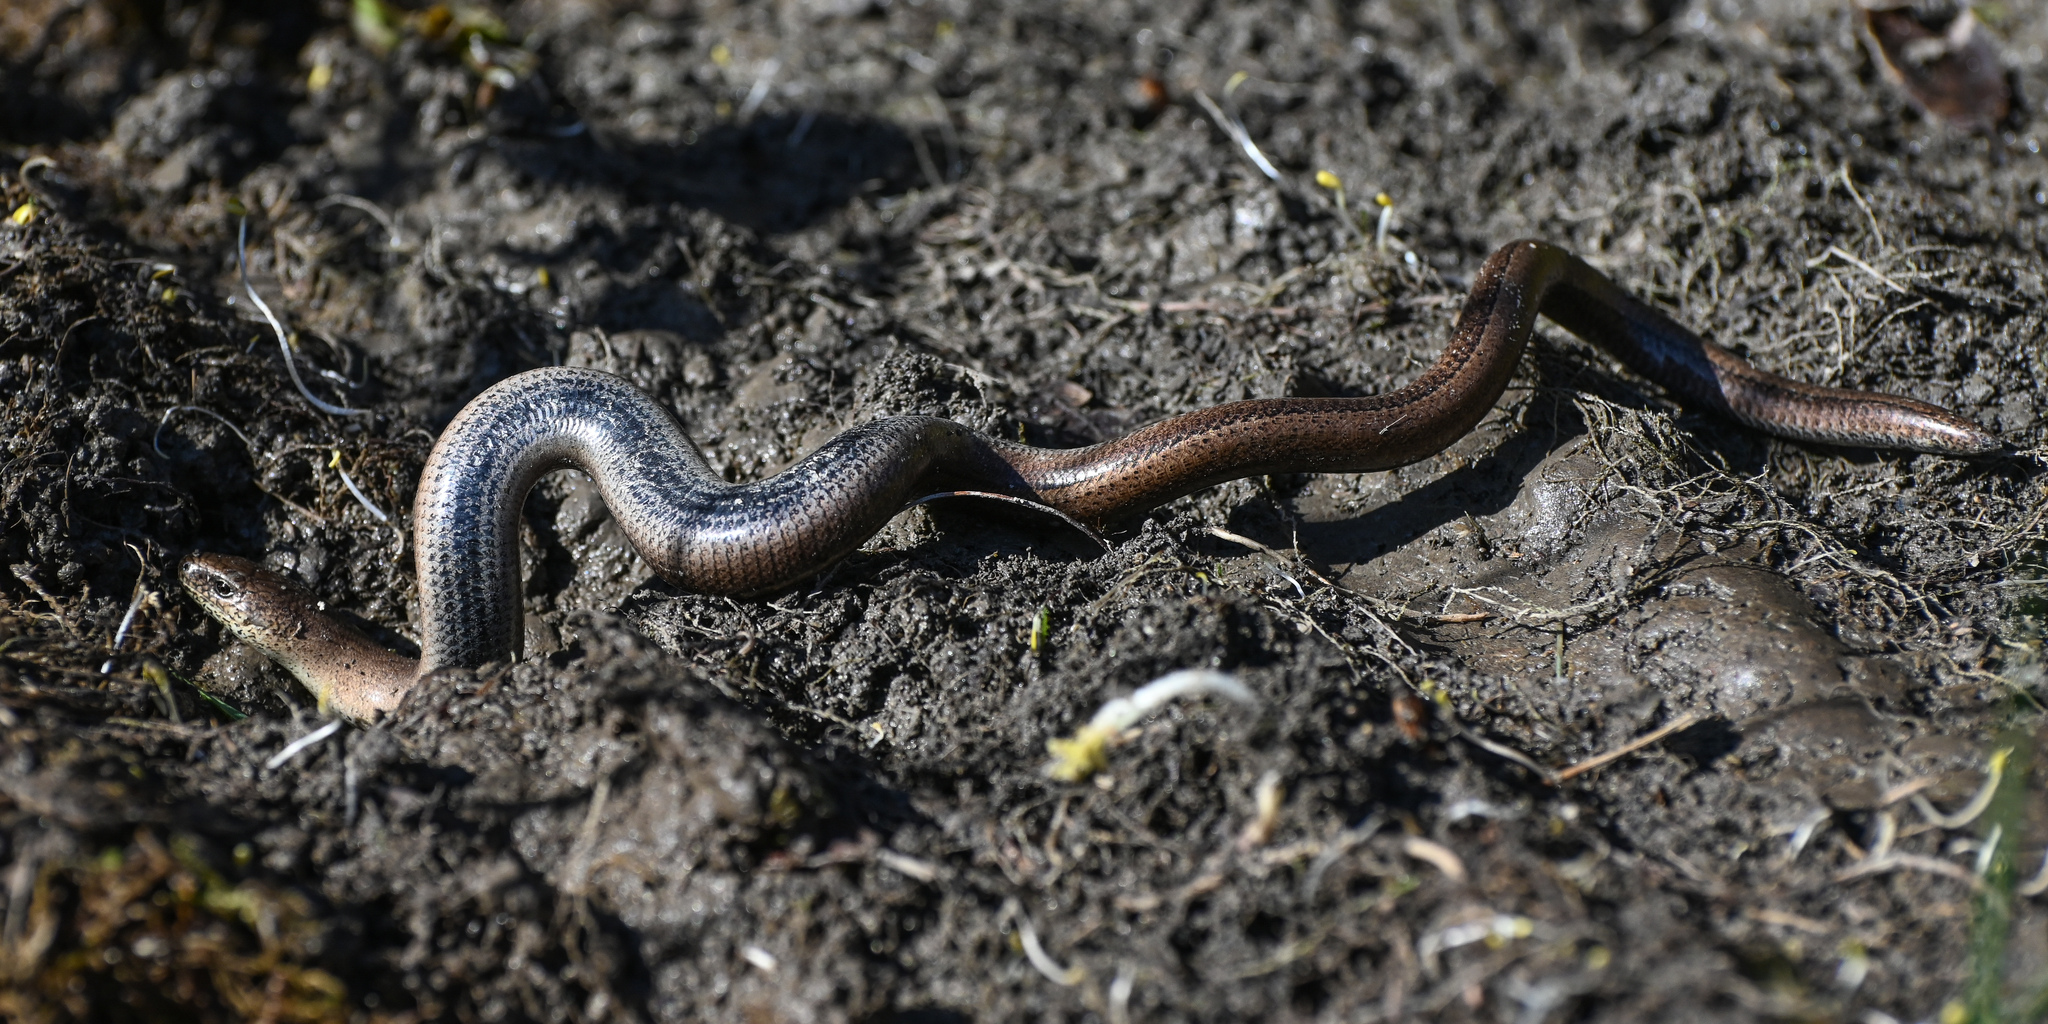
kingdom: Animalia
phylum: Chordata
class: Squamata
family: Anguidae
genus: Anguis
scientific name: Anguis fragilis
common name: Slow worm
